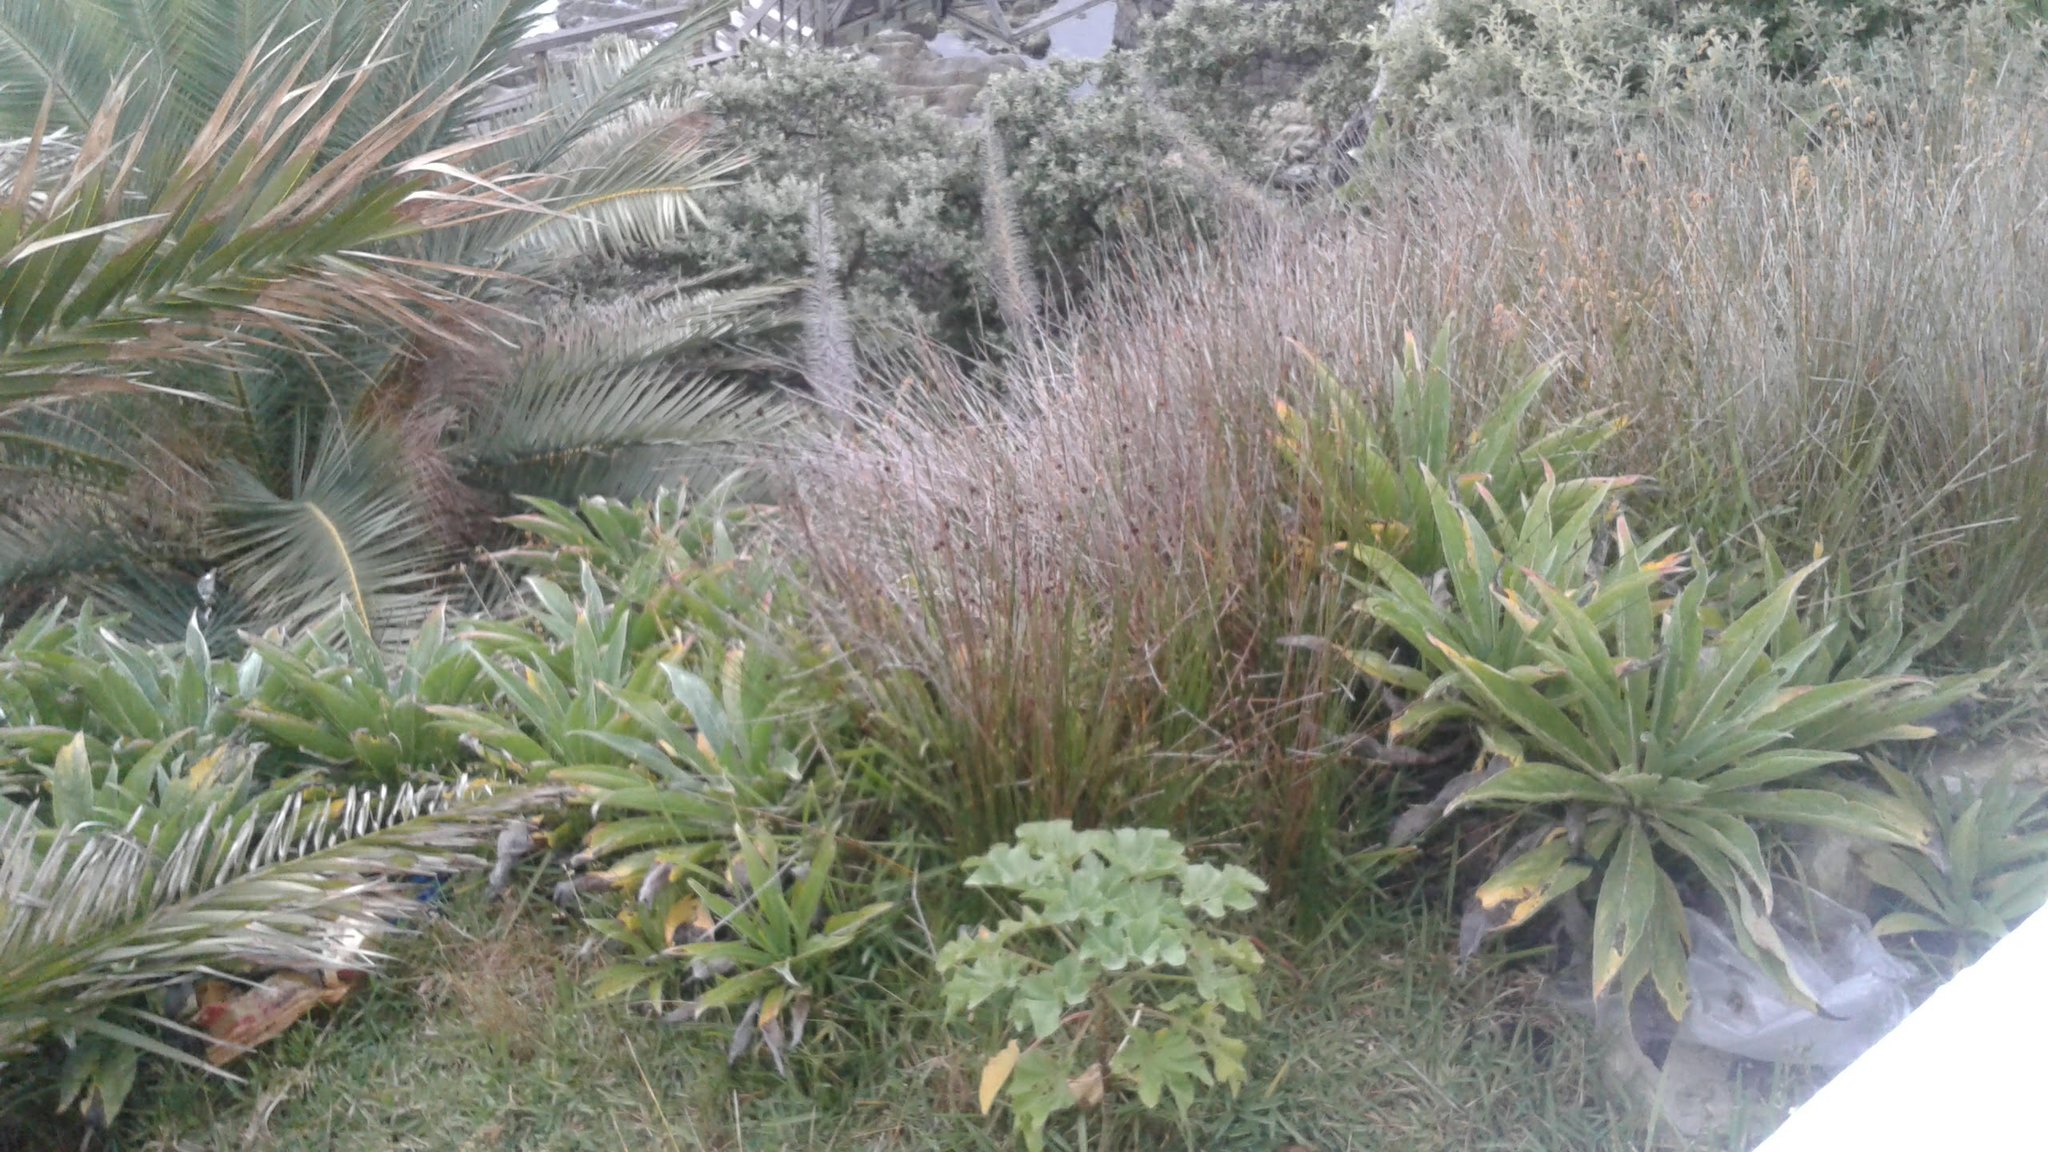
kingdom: Plantae
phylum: Tracheophyta
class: Magnoliopsida
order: Malvales
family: Malvaceae
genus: Malva
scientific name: Malva arborea
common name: Tree mallow
